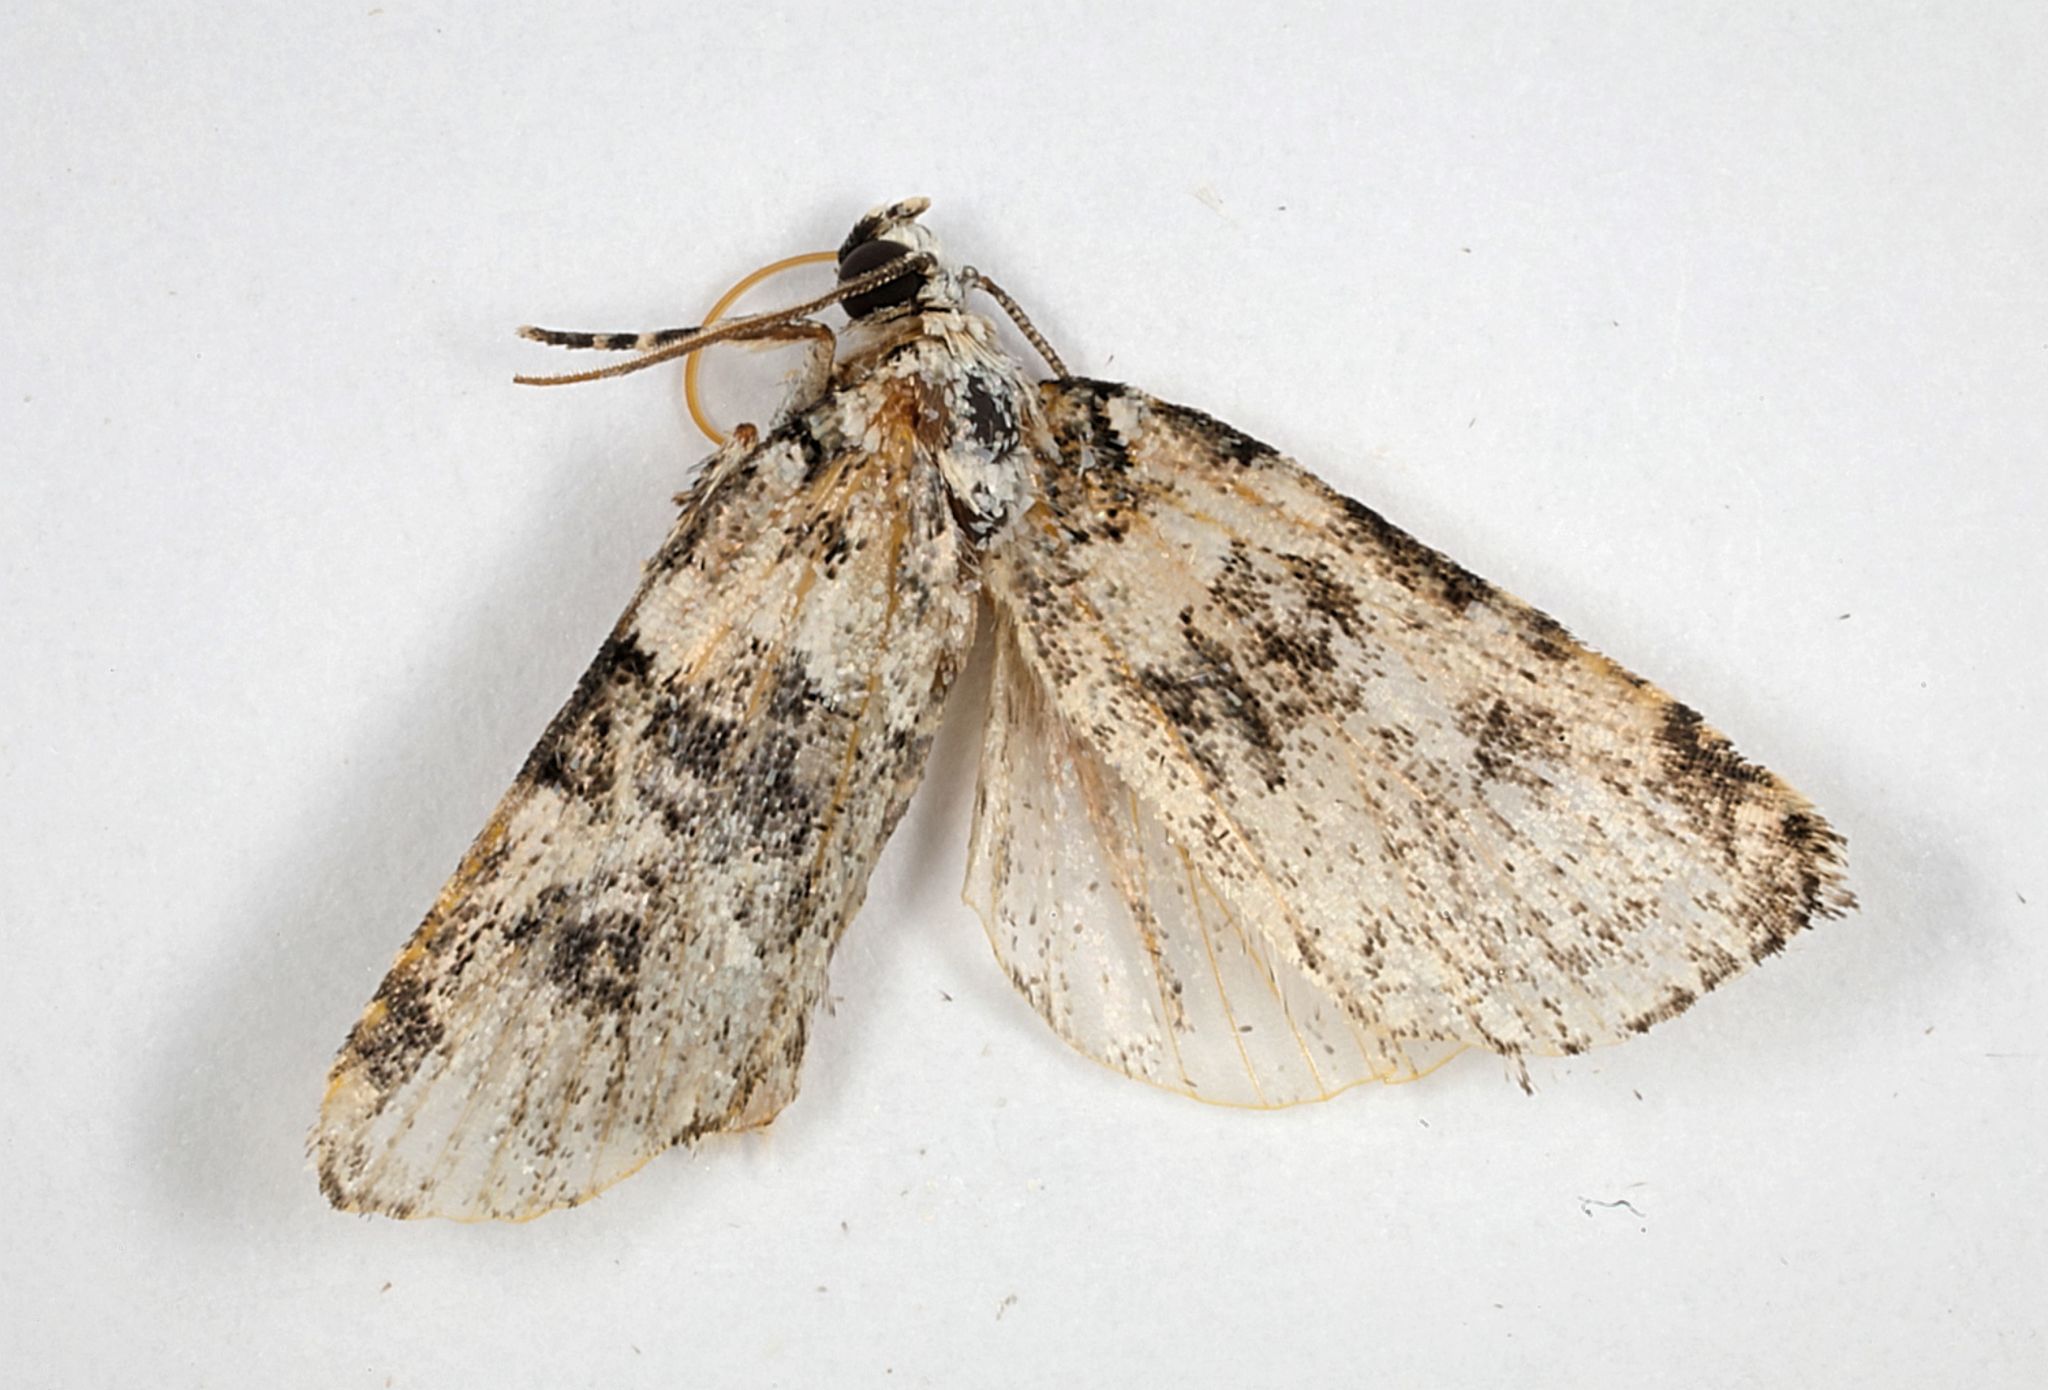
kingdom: Animalia
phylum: Arthropoda
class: Insecta
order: Lepidoptera
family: Noctuidae
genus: Bryophila
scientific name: Bryophila domestica
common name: Marbled beauty
